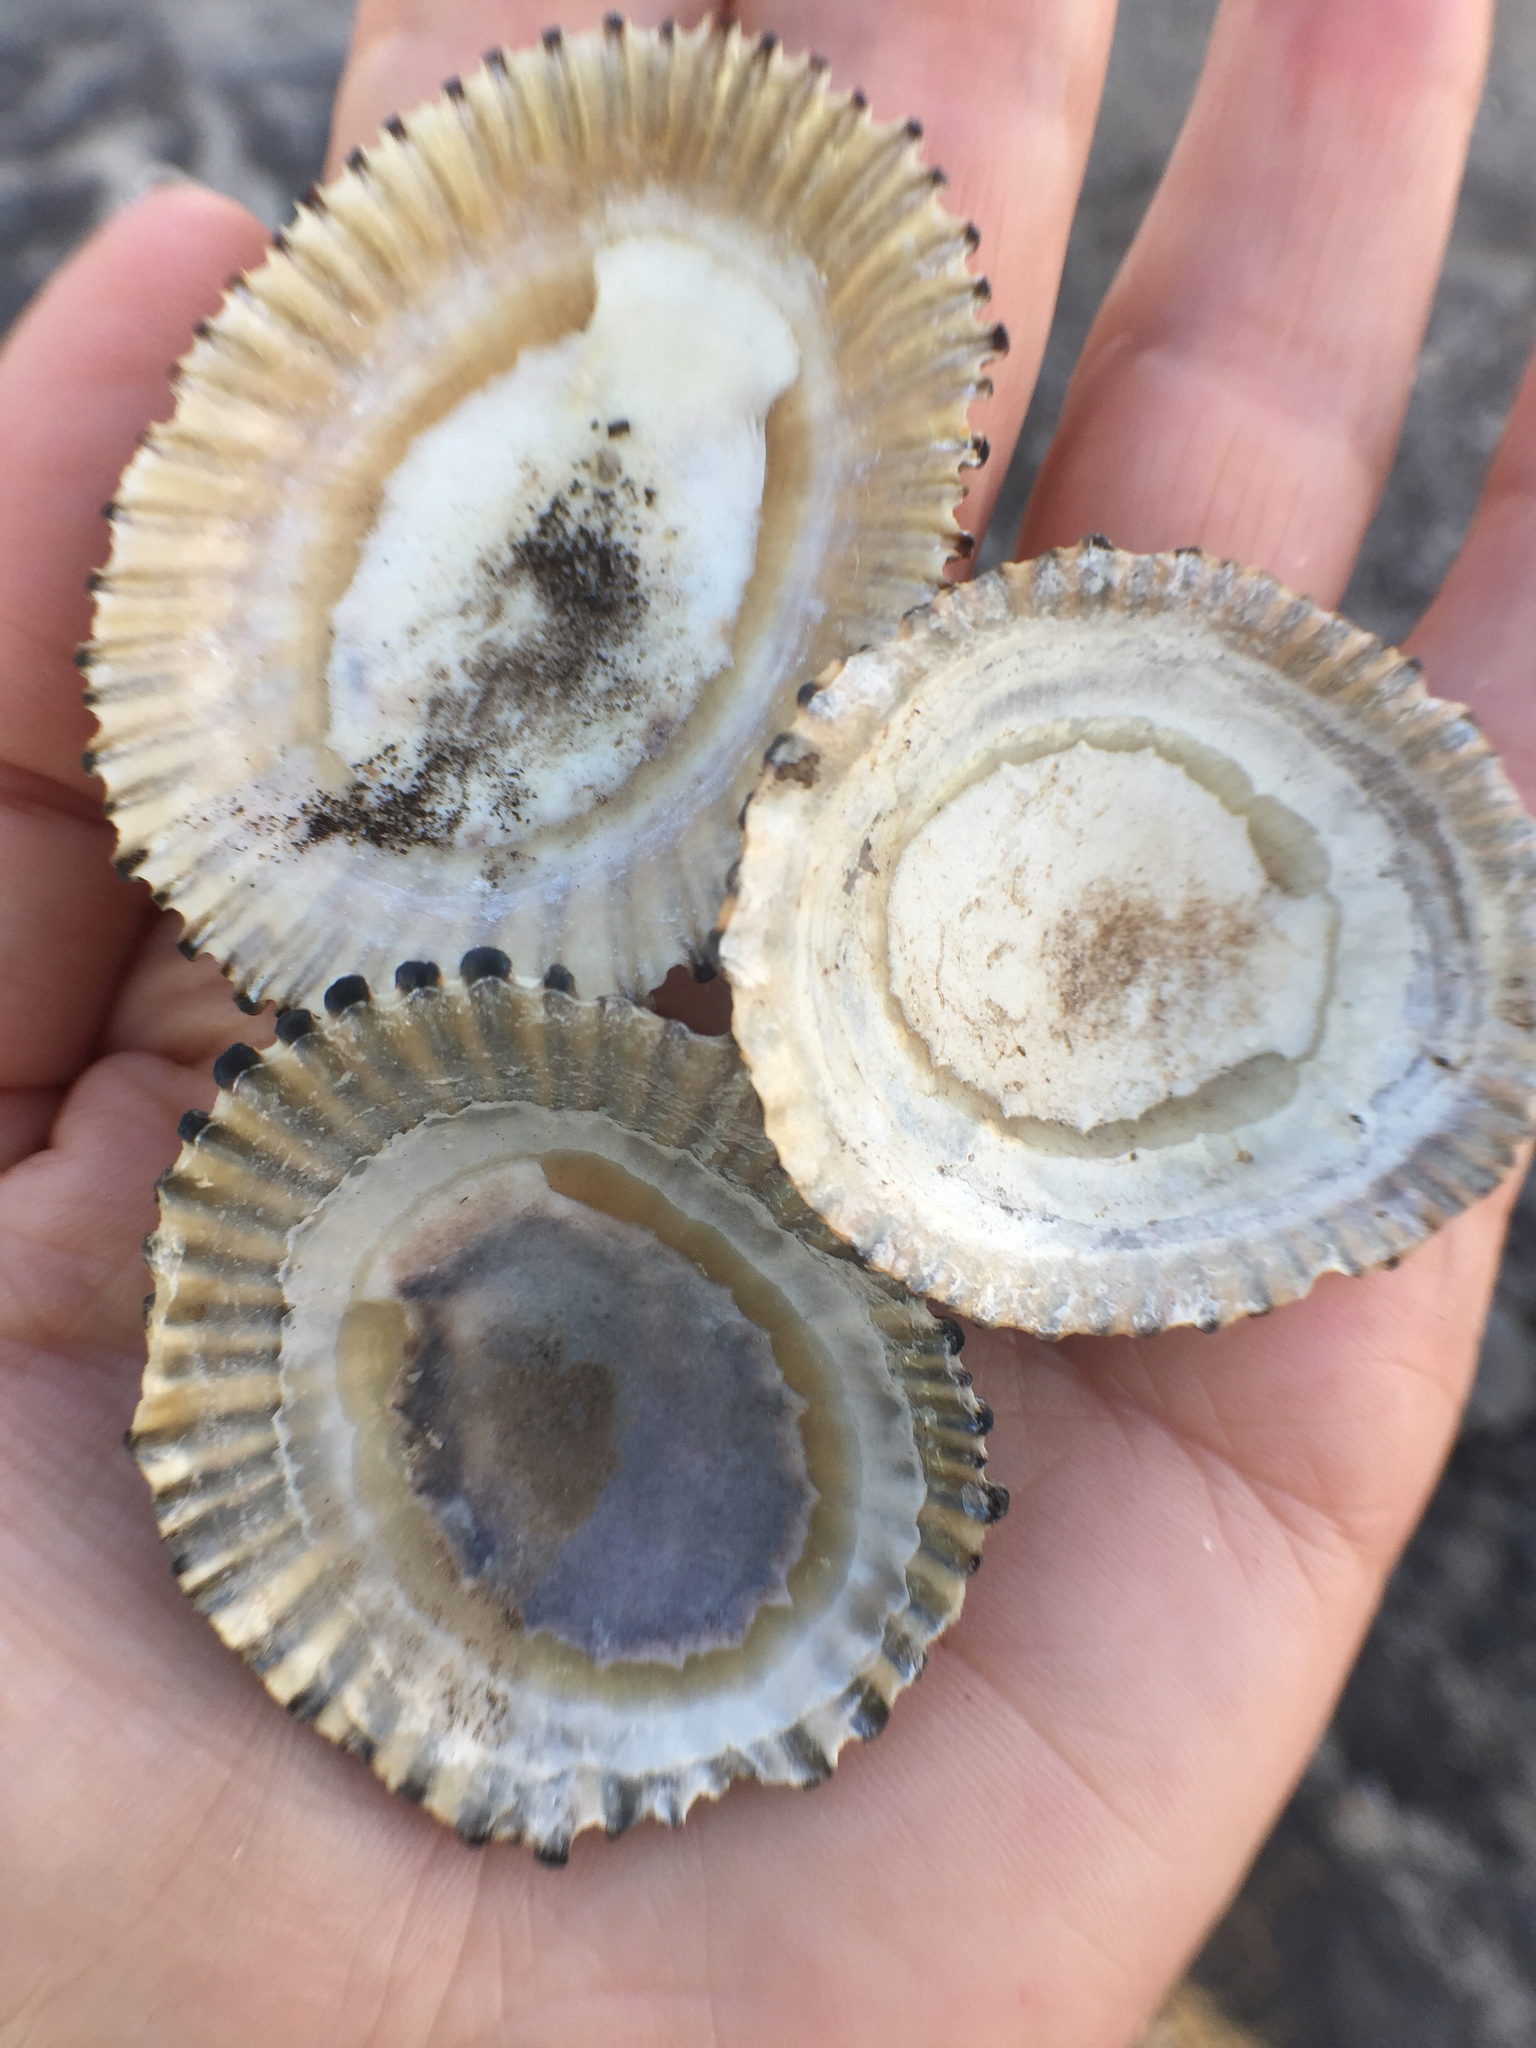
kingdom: Animalia
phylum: Mollusca
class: Gastropoda
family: Nacellidae
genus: Cellana
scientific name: Cellana exarata
